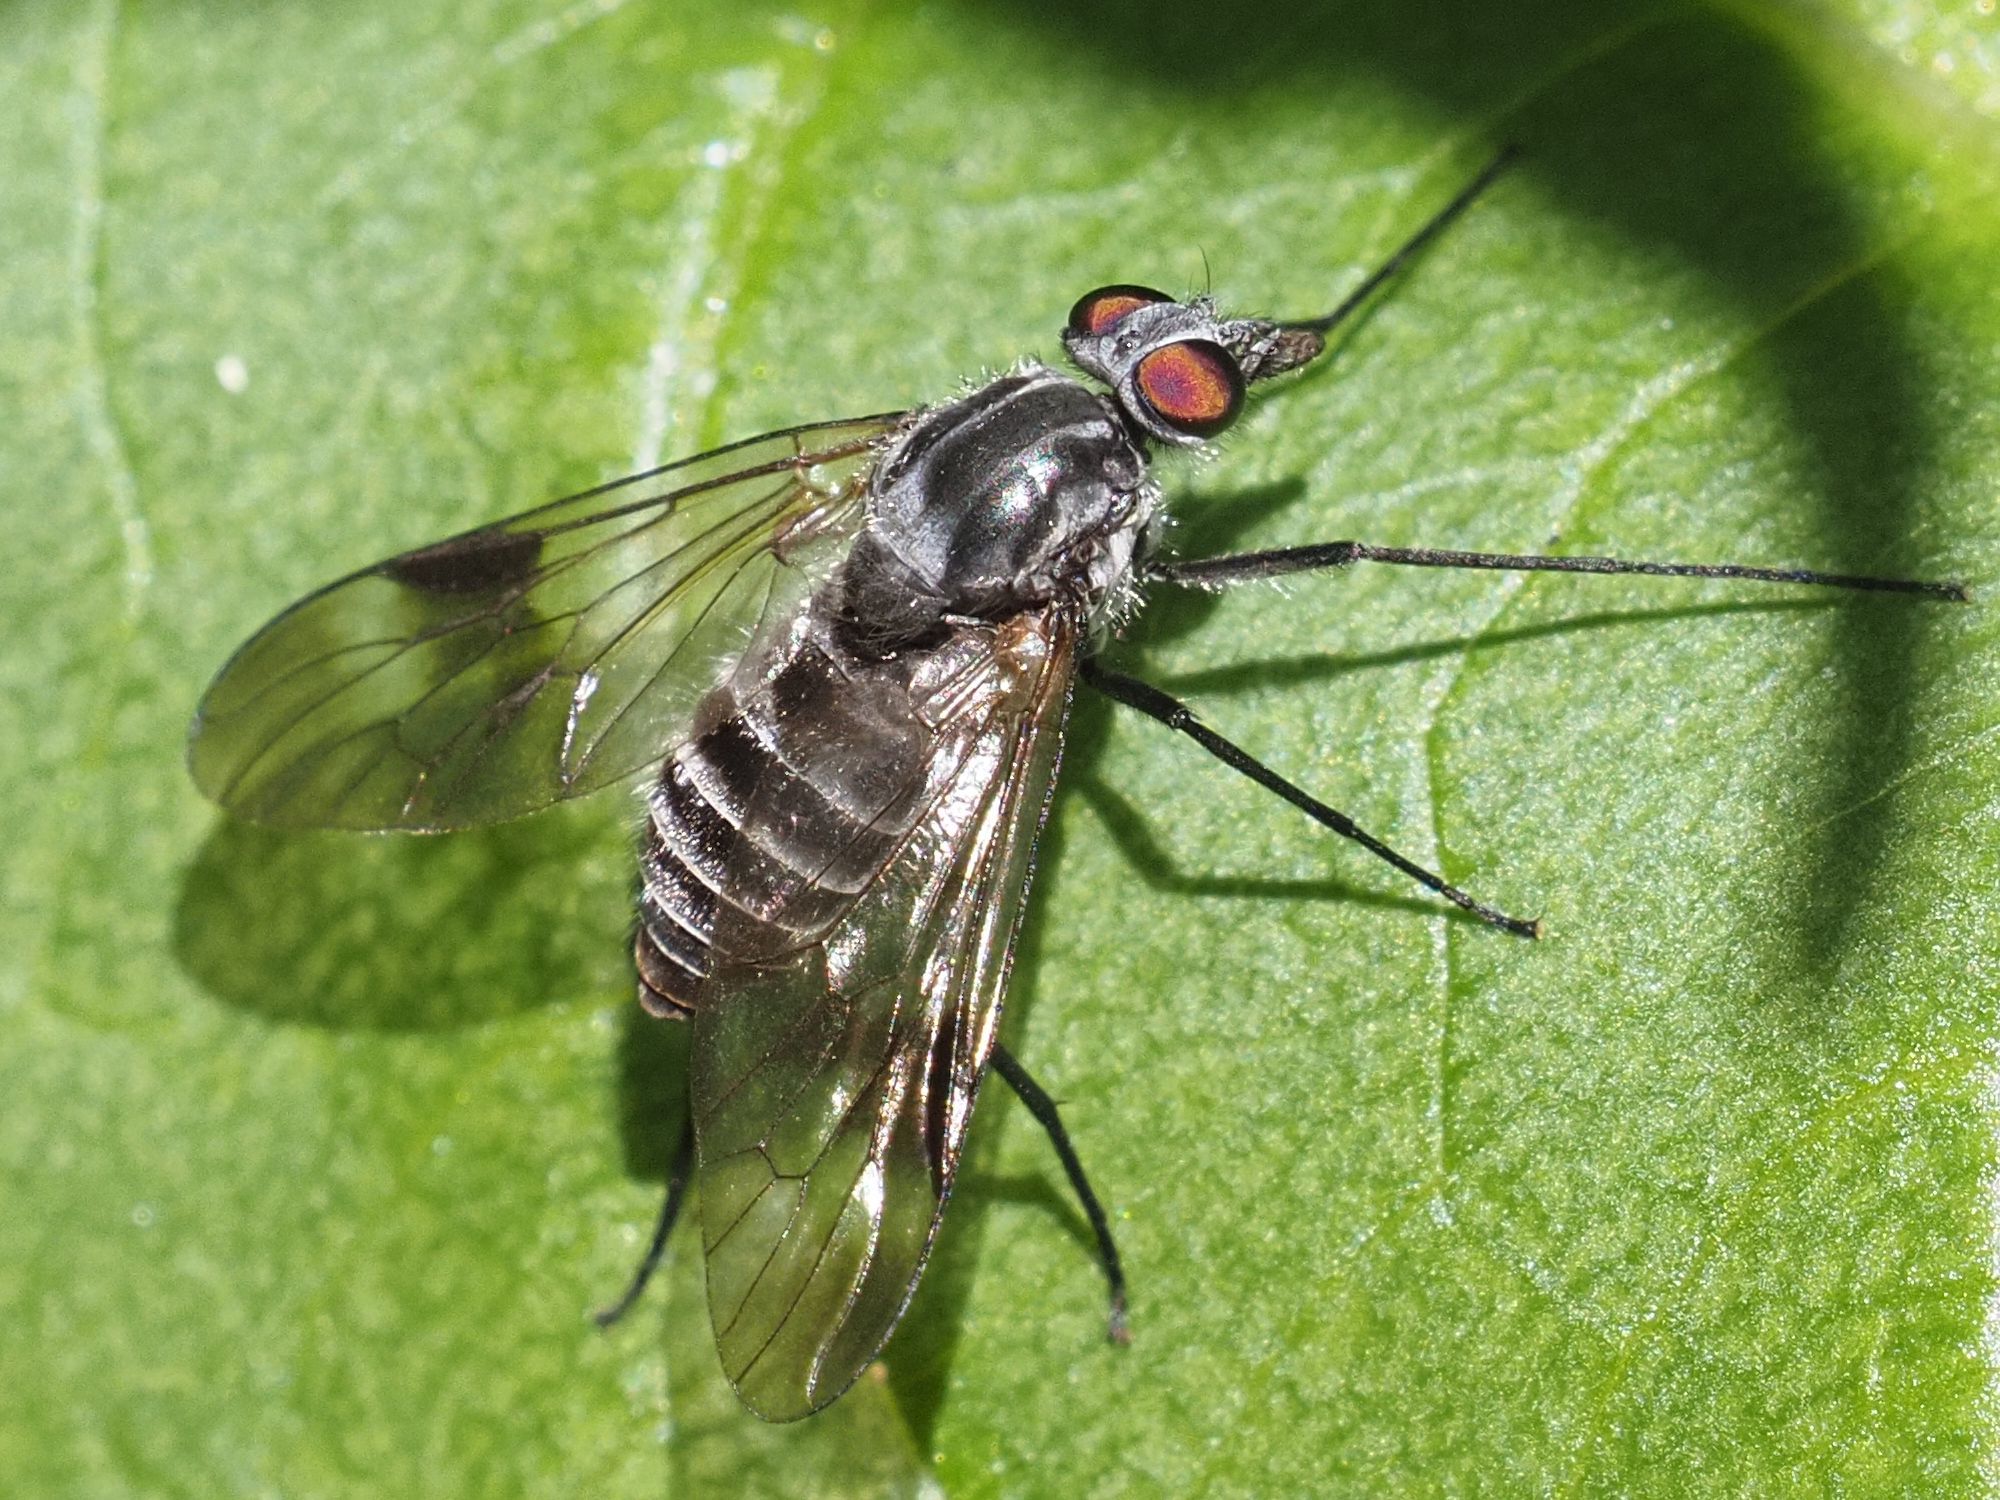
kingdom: Animalia
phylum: Arthropoda
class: Insecta
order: Diptera
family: Athericidae
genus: Atherix
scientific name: Atherix marginata
